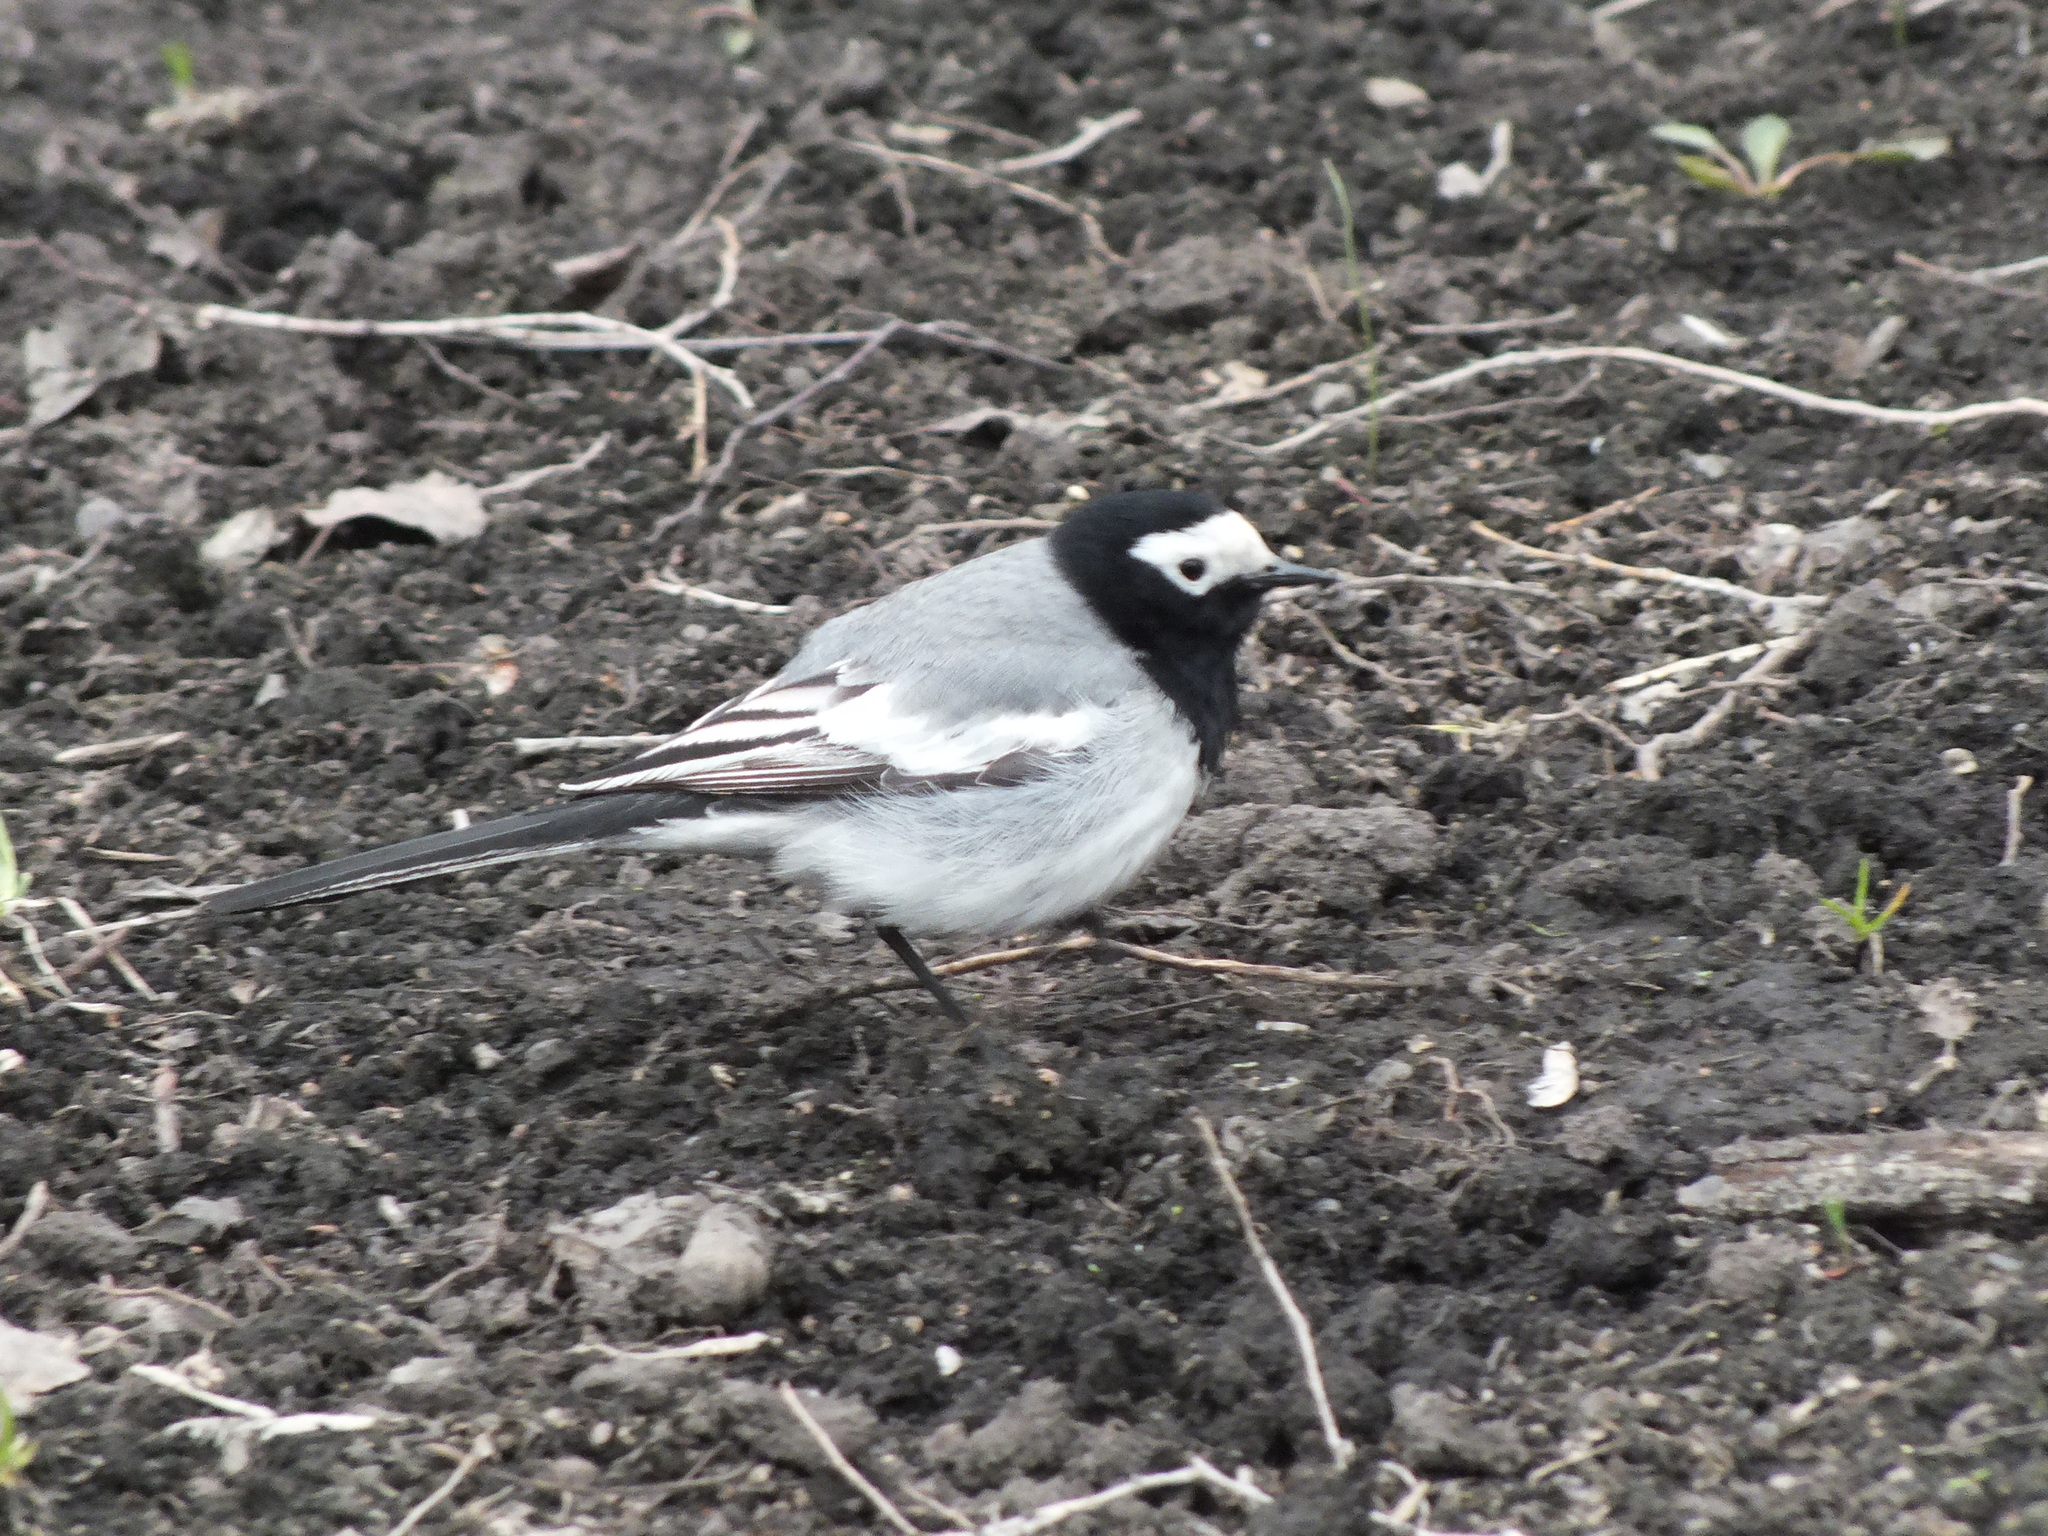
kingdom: Animalia
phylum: Chordata
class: Aves
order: Passeriformes
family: Motacillidae
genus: Motacilla
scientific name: Motacilla alba
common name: White wagtail
